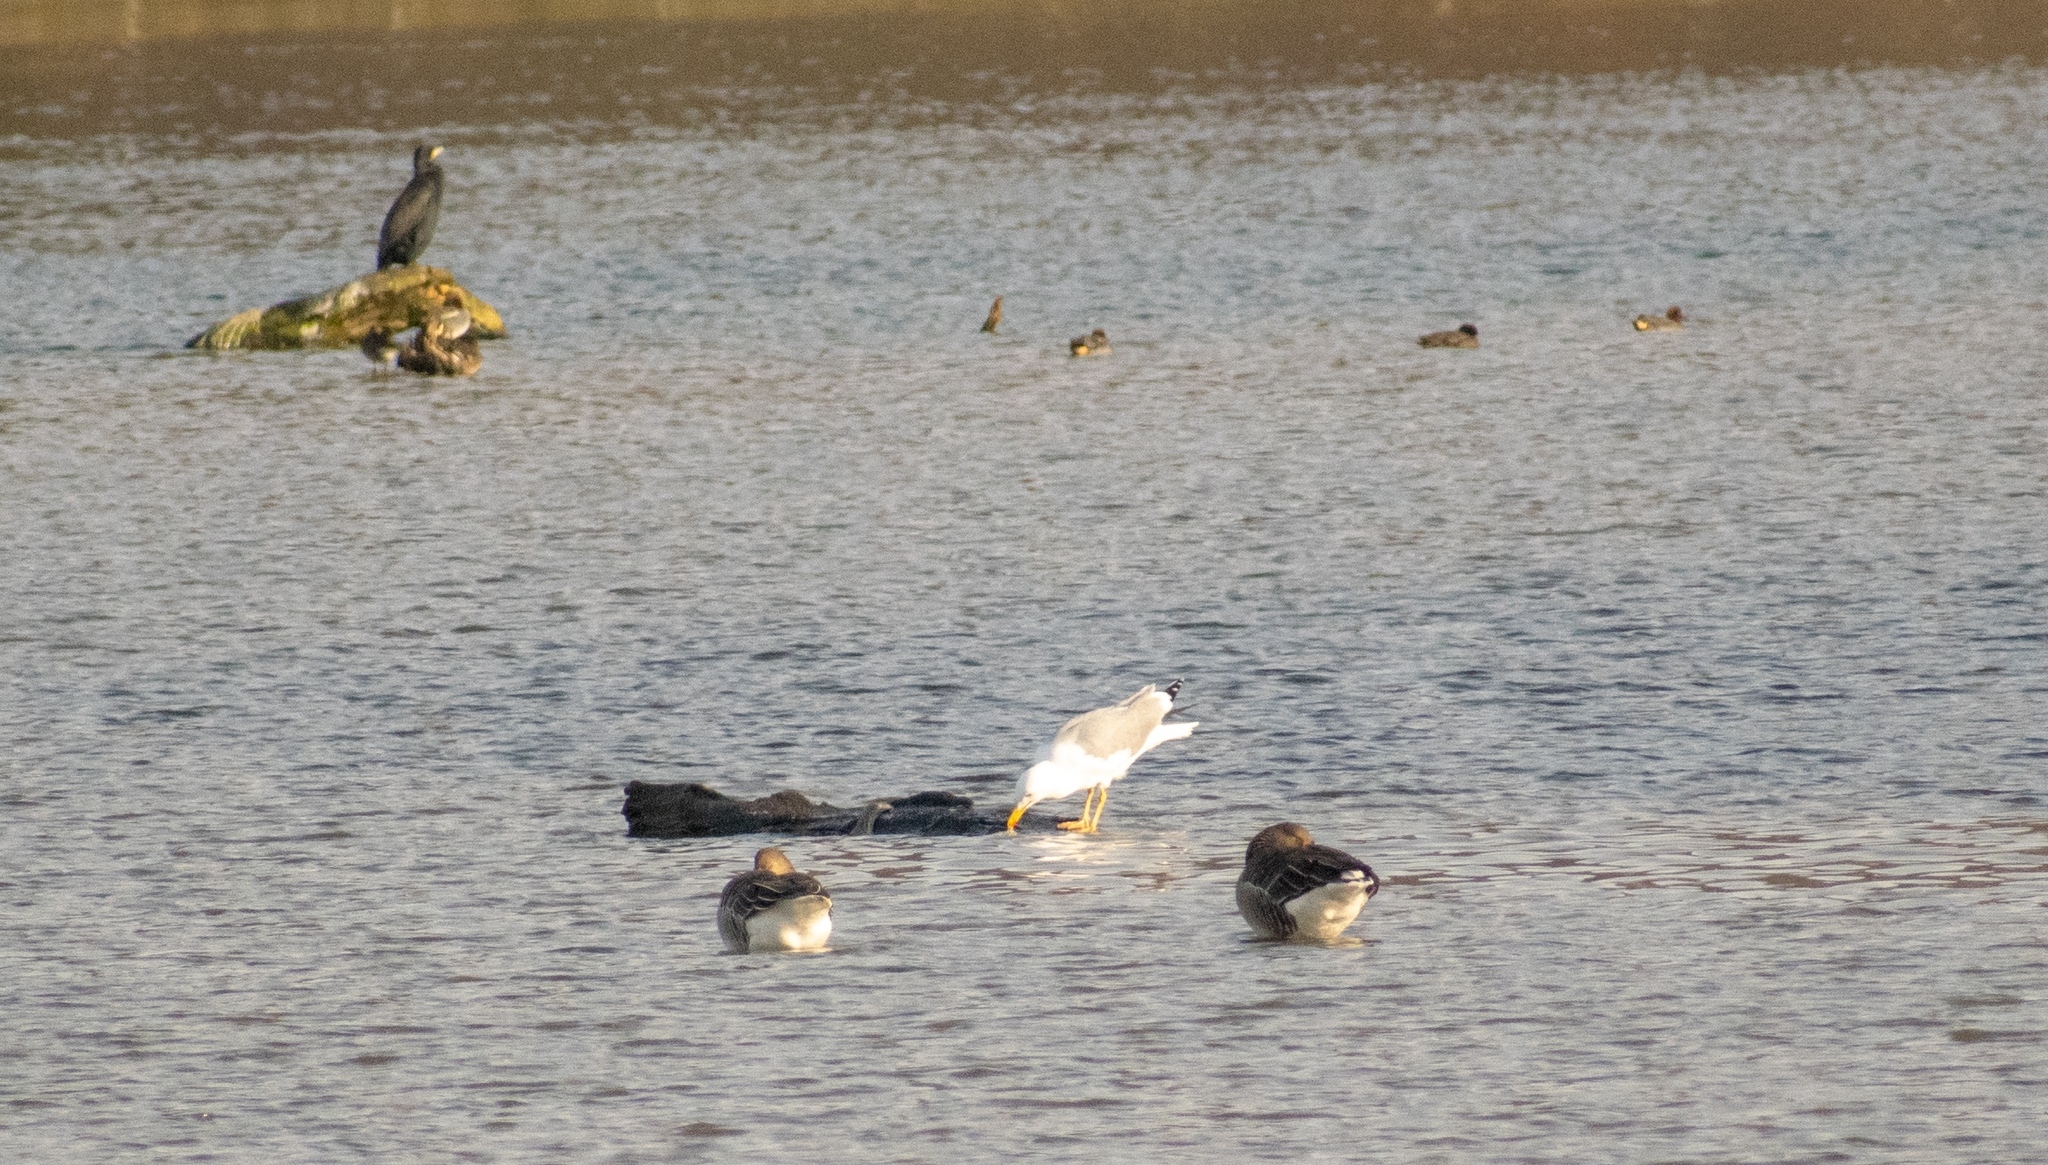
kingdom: Animalia
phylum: Chordata
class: Aves
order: Charadriiformes
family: Laridae
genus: Larus
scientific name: Larus michahellis
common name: Yellow-legged gull
